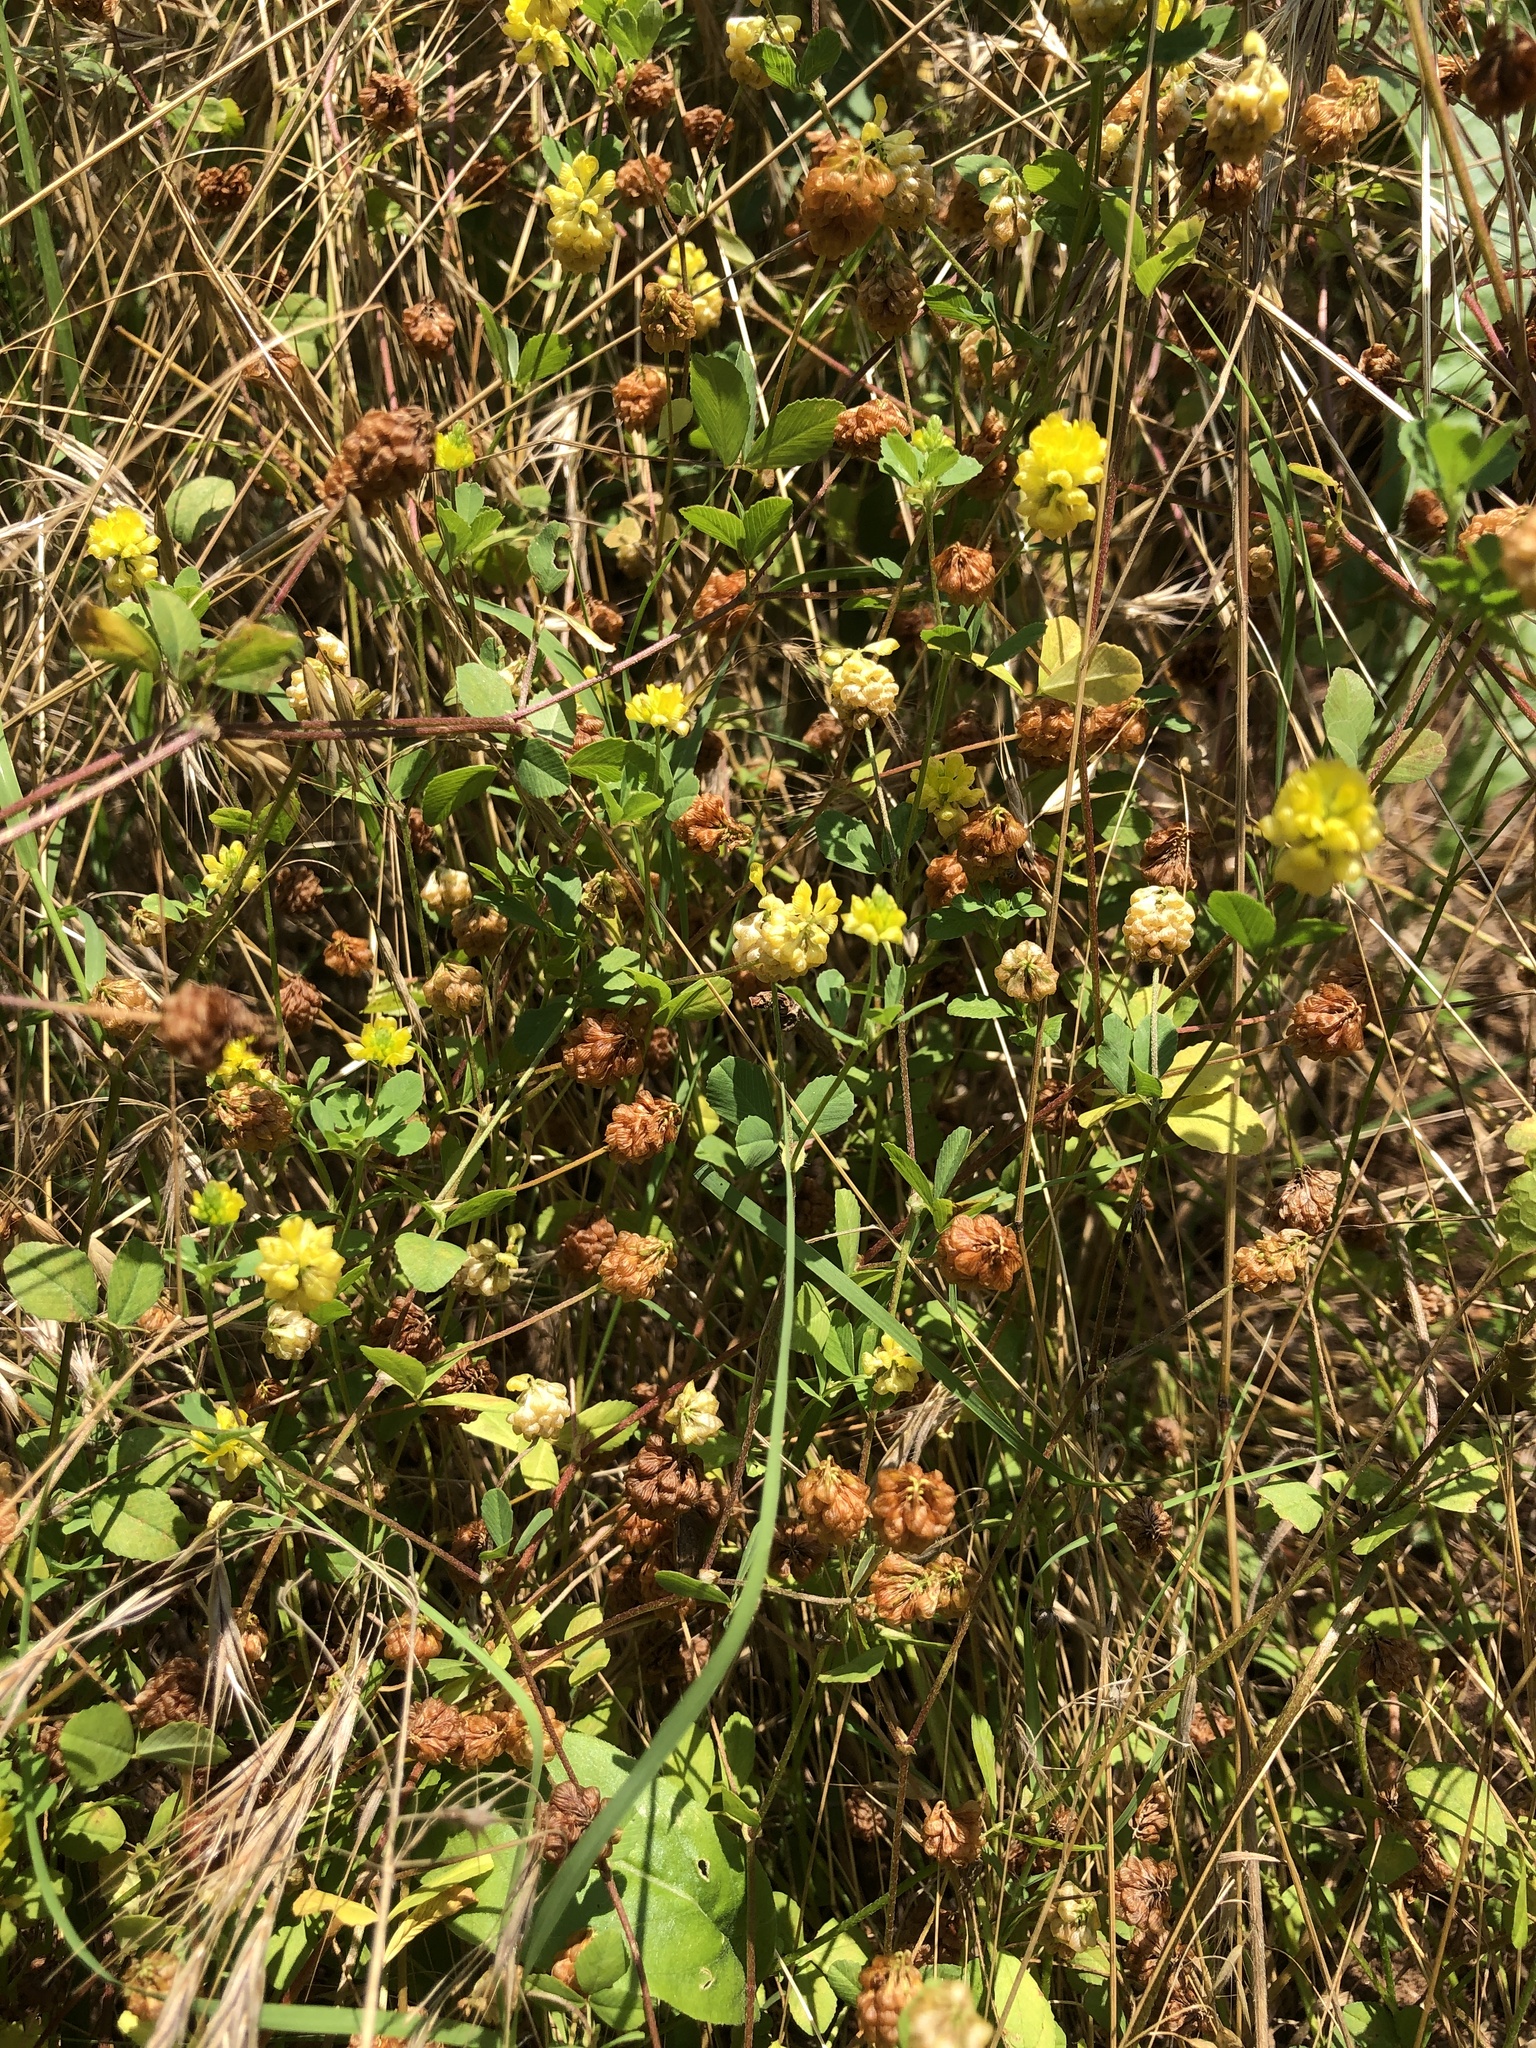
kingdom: Plantae
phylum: Tracheophyta
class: Magnoliopsida
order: Fabales
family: Fabaceae
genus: Trifolium
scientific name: Trifolium campestre
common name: Field clover
